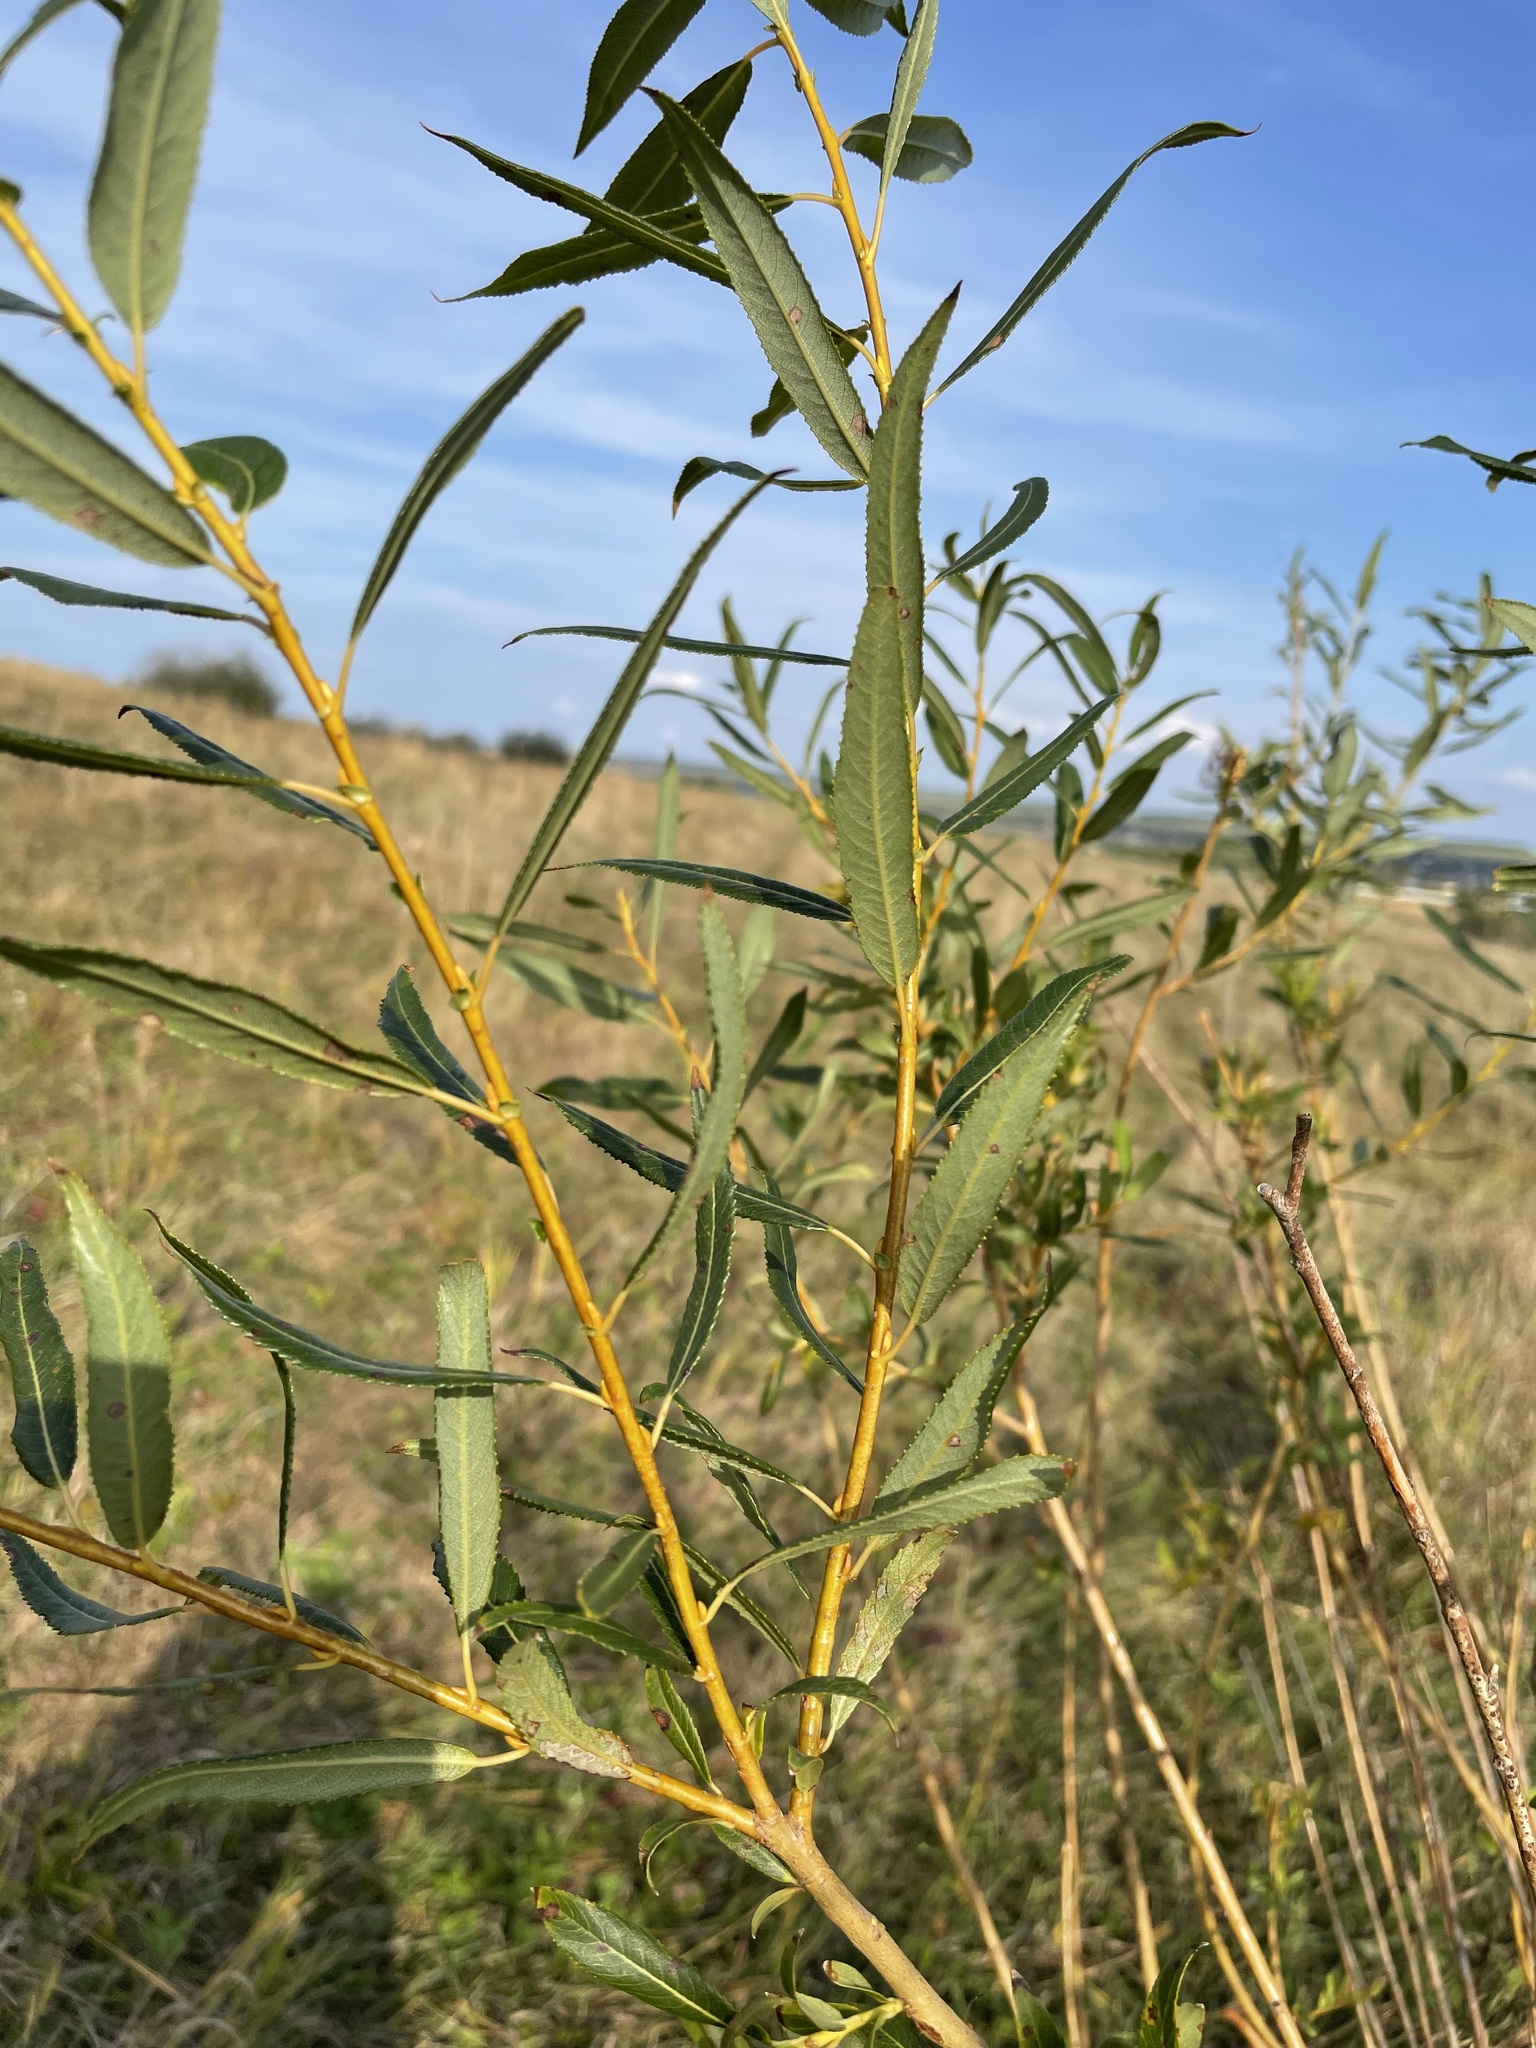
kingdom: Plantae
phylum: Tracheophyta
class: Magnoliopsida
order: Malpighiales
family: Salicaceae
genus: Salix
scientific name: Salix triandra
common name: Almond willow
